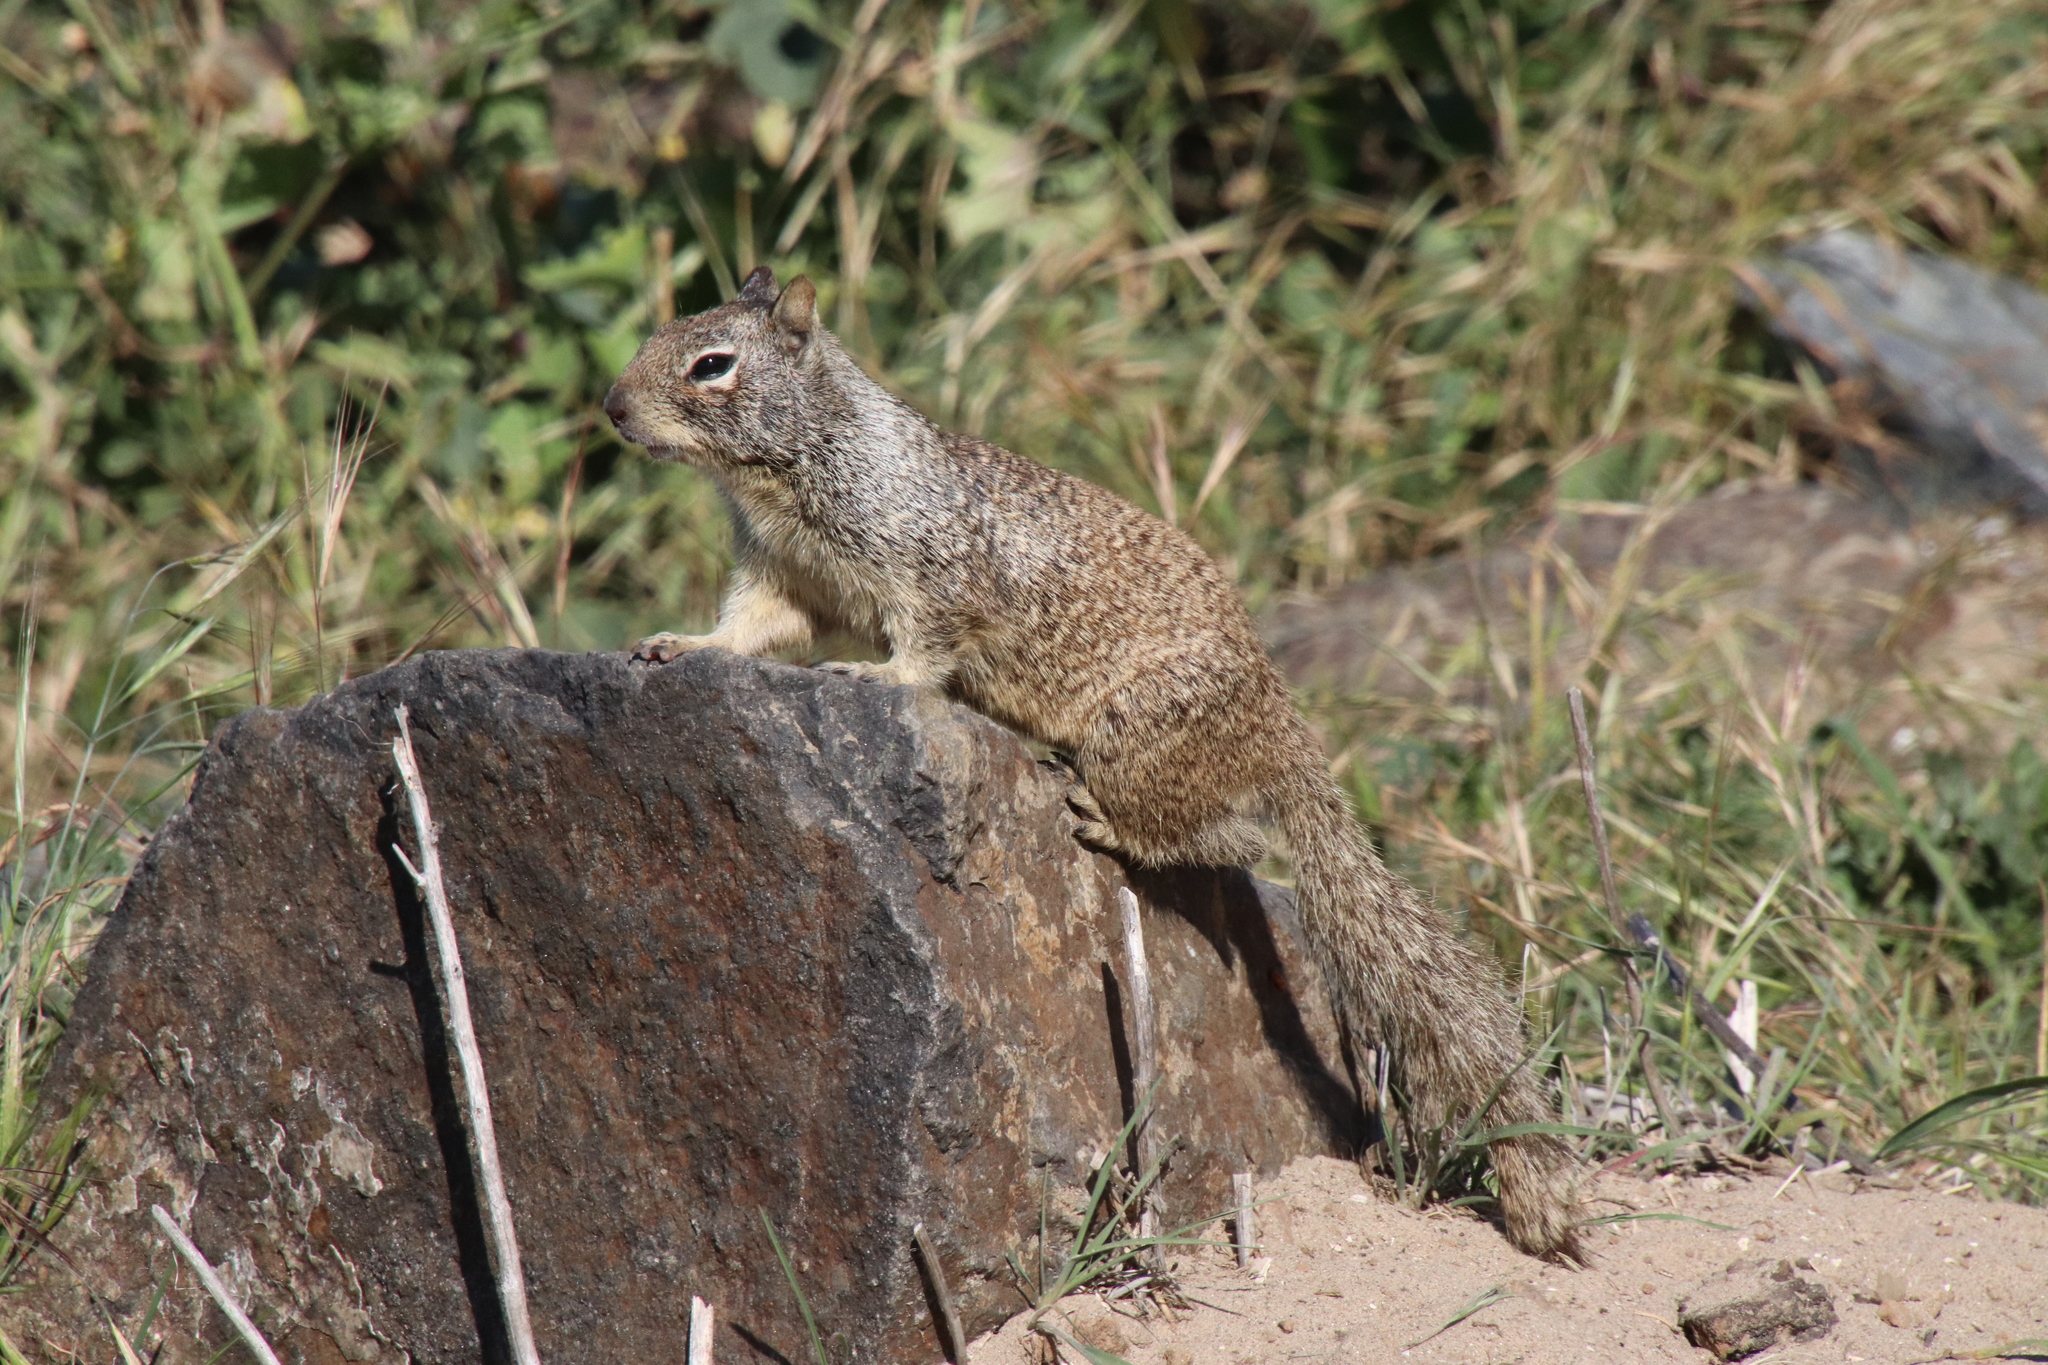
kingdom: Animalia
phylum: Chordata
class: Mammalia
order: Rodentia
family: Sciuridae
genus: Otospermophilus
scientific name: Otospermophilus beecheyi
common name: California ground squirrel
